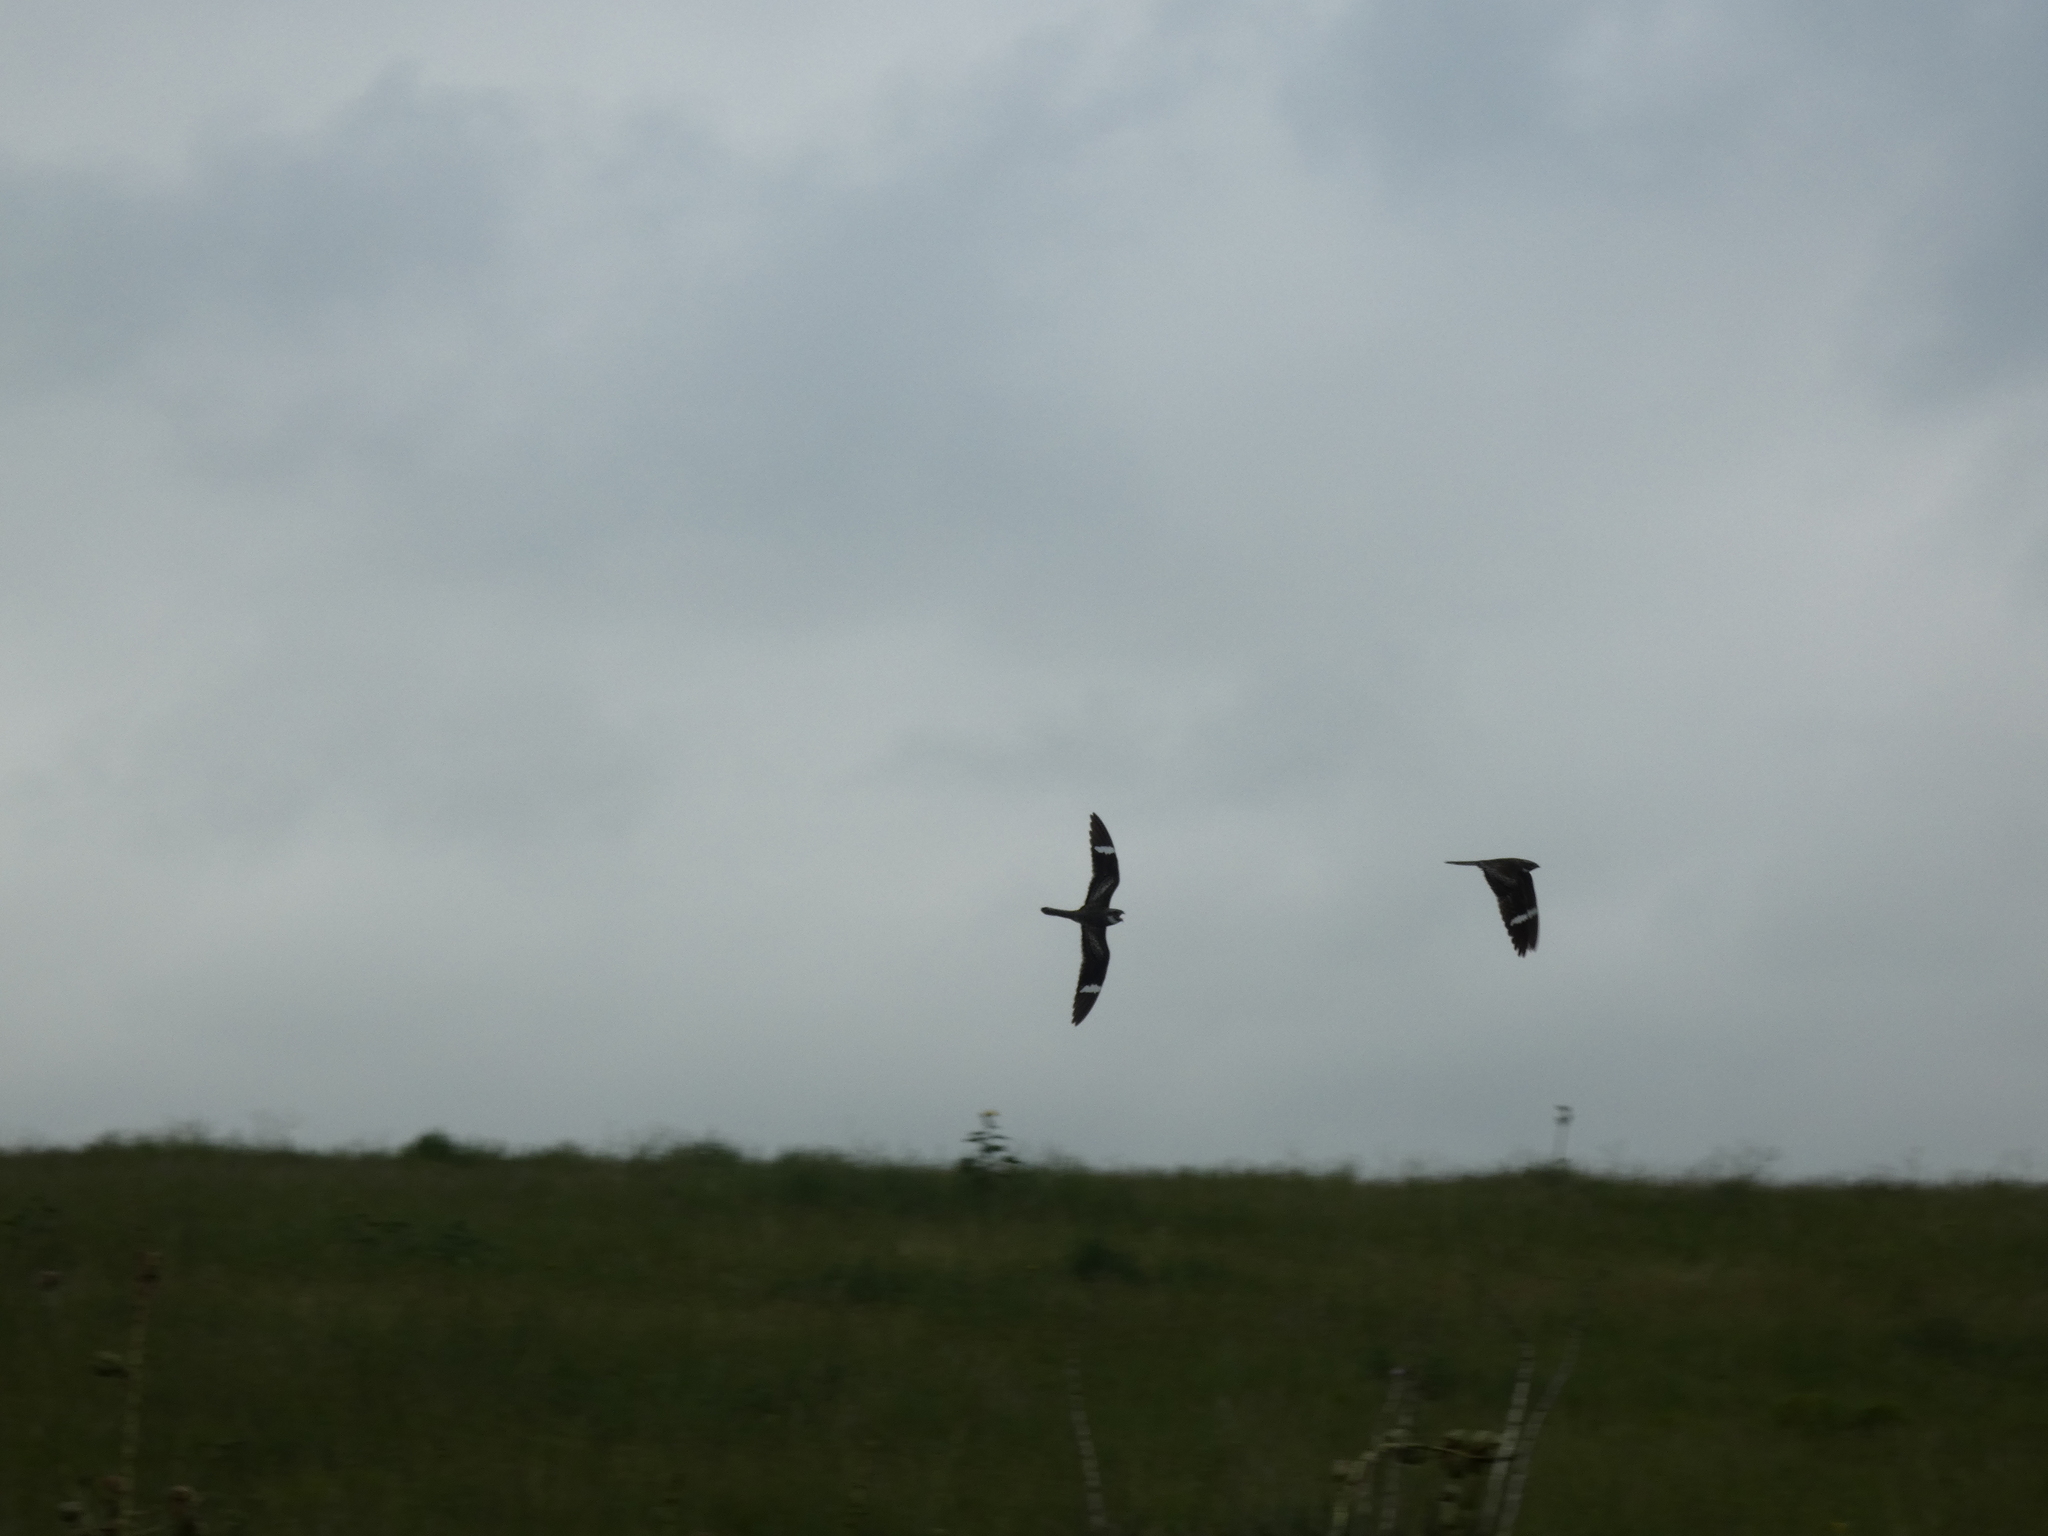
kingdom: Animalia
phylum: Chordata
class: Aves
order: Caprimulgiformes
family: Caprimulgidae
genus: Chordeiles
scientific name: Chordeiles minor
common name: Common nighthawk
